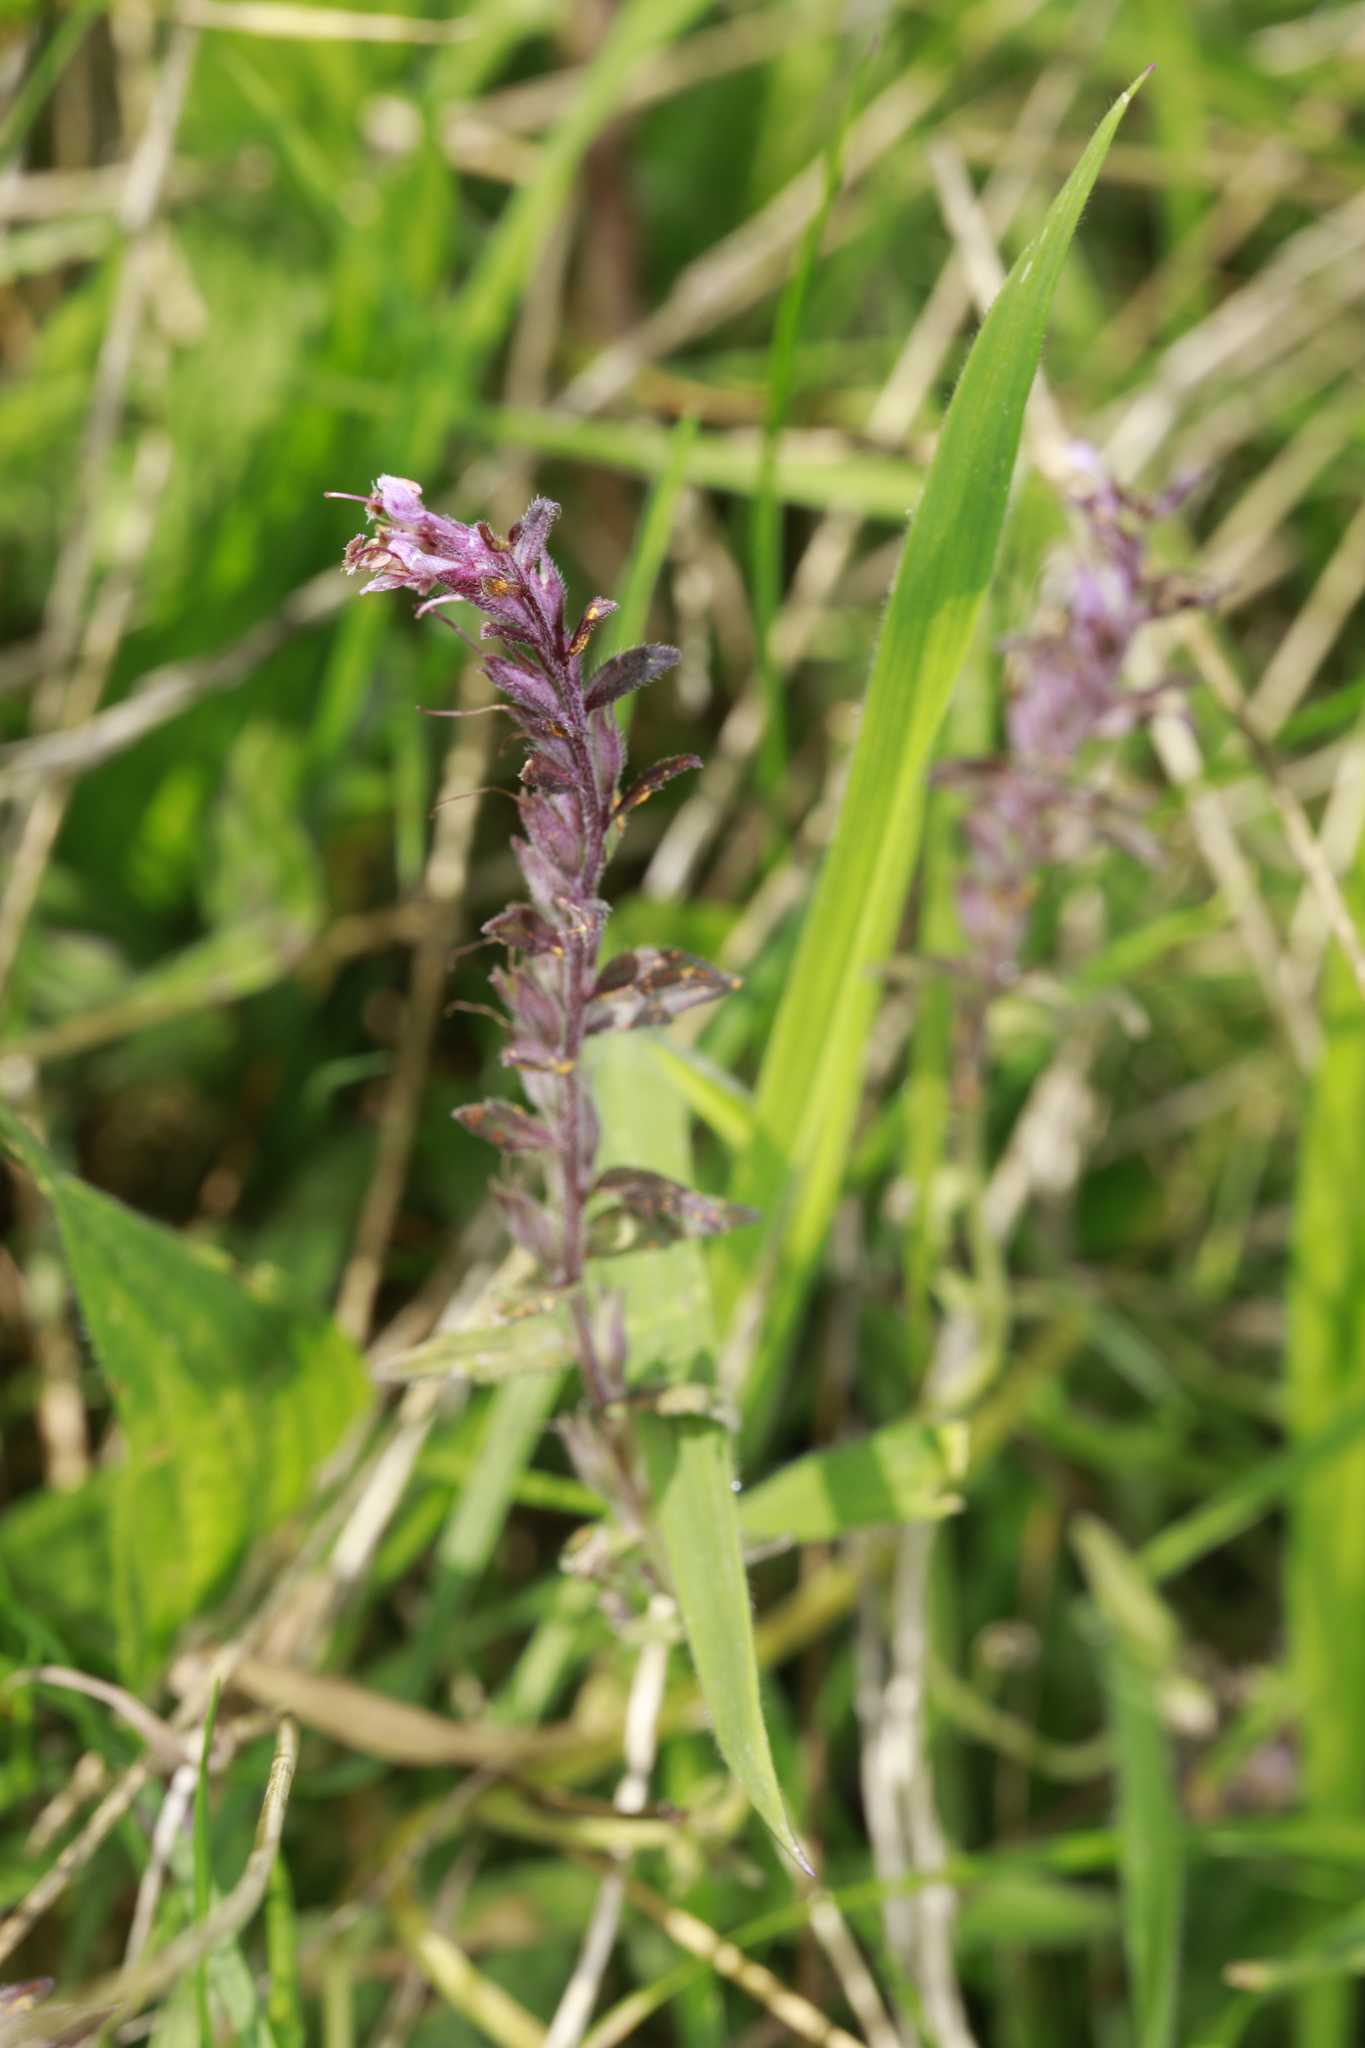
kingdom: Plantae
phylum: Tracheophyta
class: Magnoliopsida
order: Lamiales
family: Orobanchaceae
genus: Odontites
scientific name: Odontites vulgaris
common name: Broomrape
